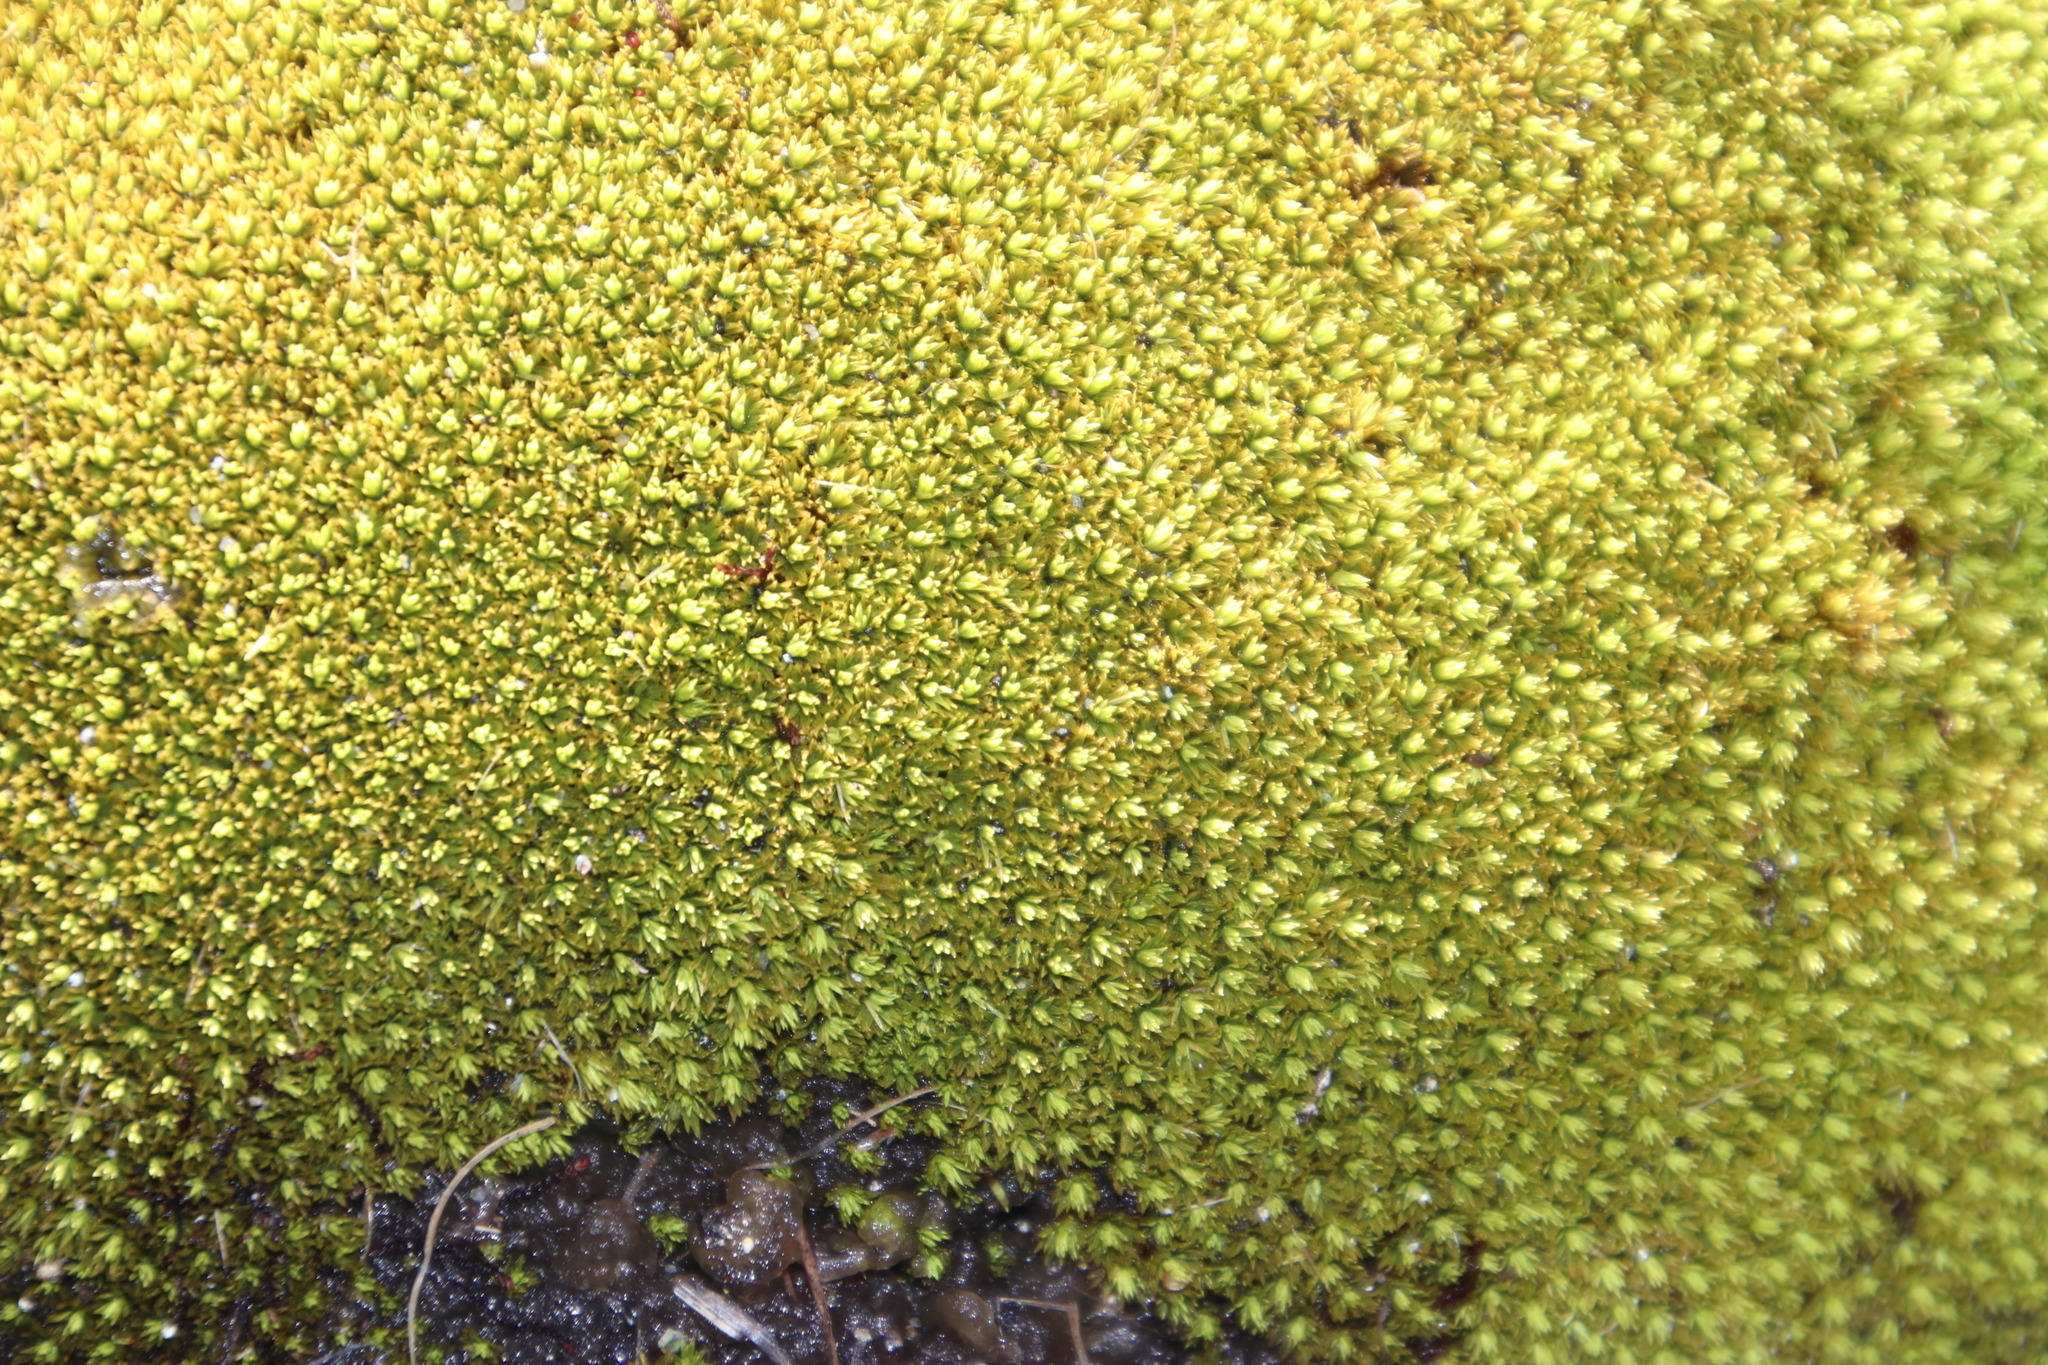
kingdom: Plantae
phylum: Bryophyta
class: Bryopsida
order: Dicranales
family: Hypodontiaceae
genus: Hypodontium
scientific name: Hypodontium pomiforme
